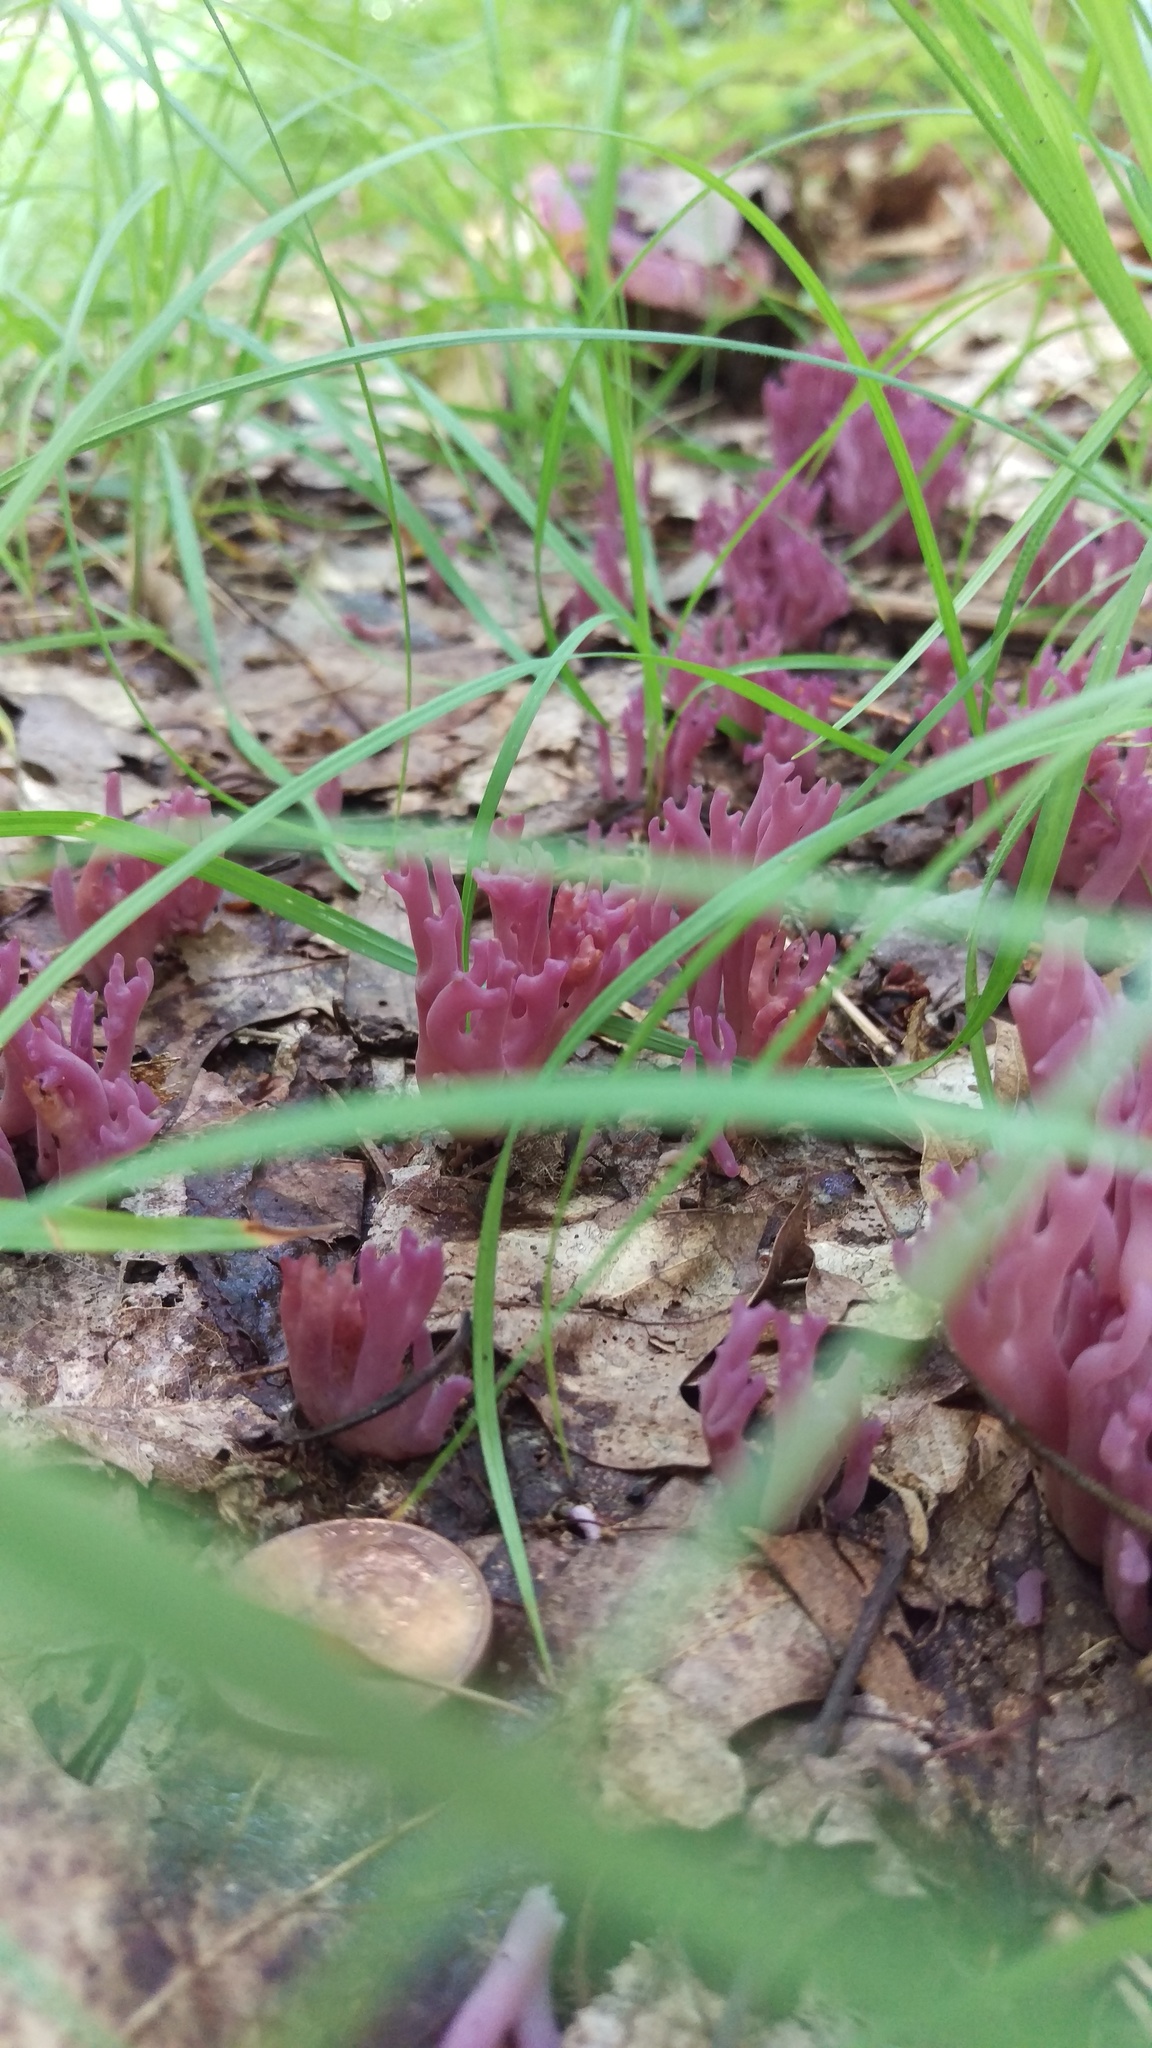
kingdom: Fungi
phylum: Basidiomycota
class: Agaricomycetes
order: Agaricales
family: Clavariaceae
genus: Clavaria
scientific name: Clavaria zollingeri
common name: Violet coral
